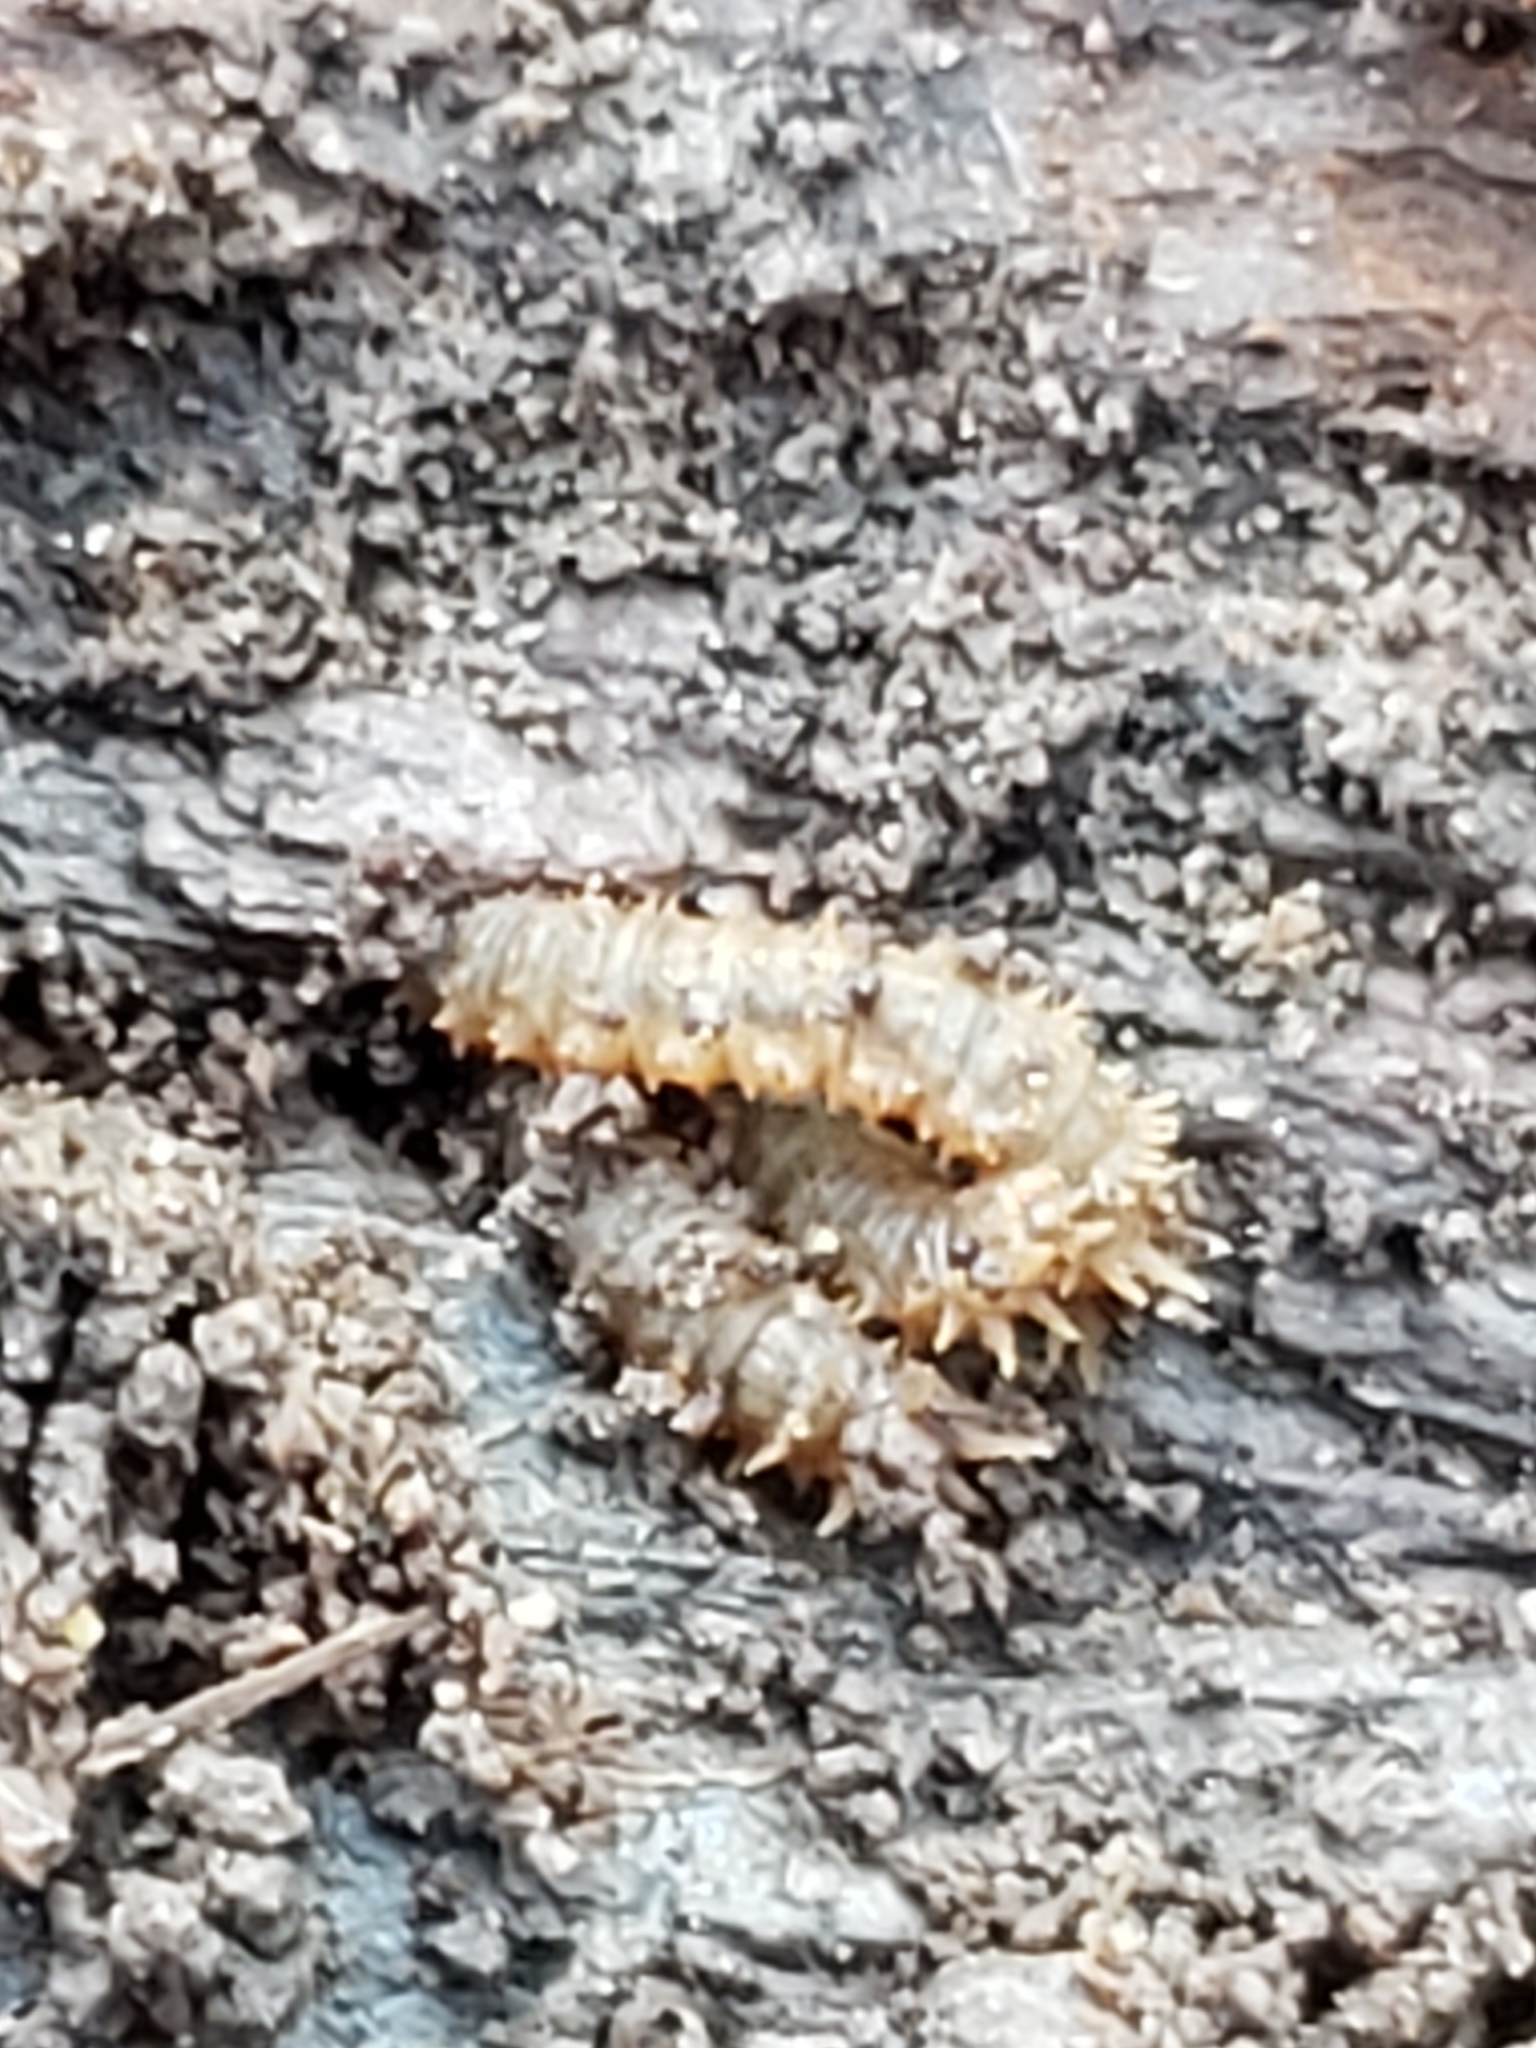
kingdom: Animalia
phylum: Arthropoda
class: Insecta
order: Diptera
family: Bibionidae
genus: Bibio
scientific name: Bibio
